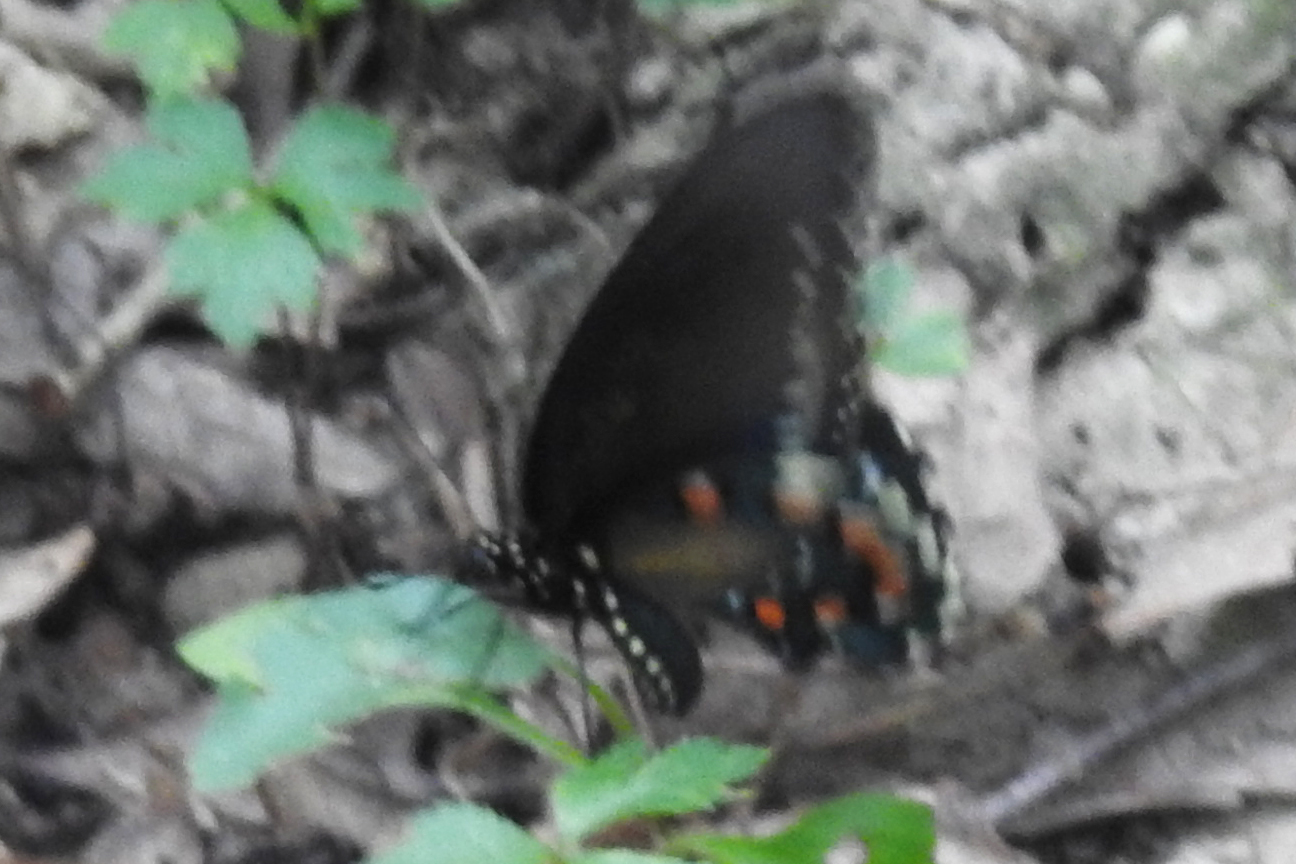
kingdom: Animalia
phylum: Arthropoda
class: Insecta
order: Lepidoptera
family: Papilionidae
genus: Battus
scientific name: Battus philenor
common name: Pipevine swallowtail
